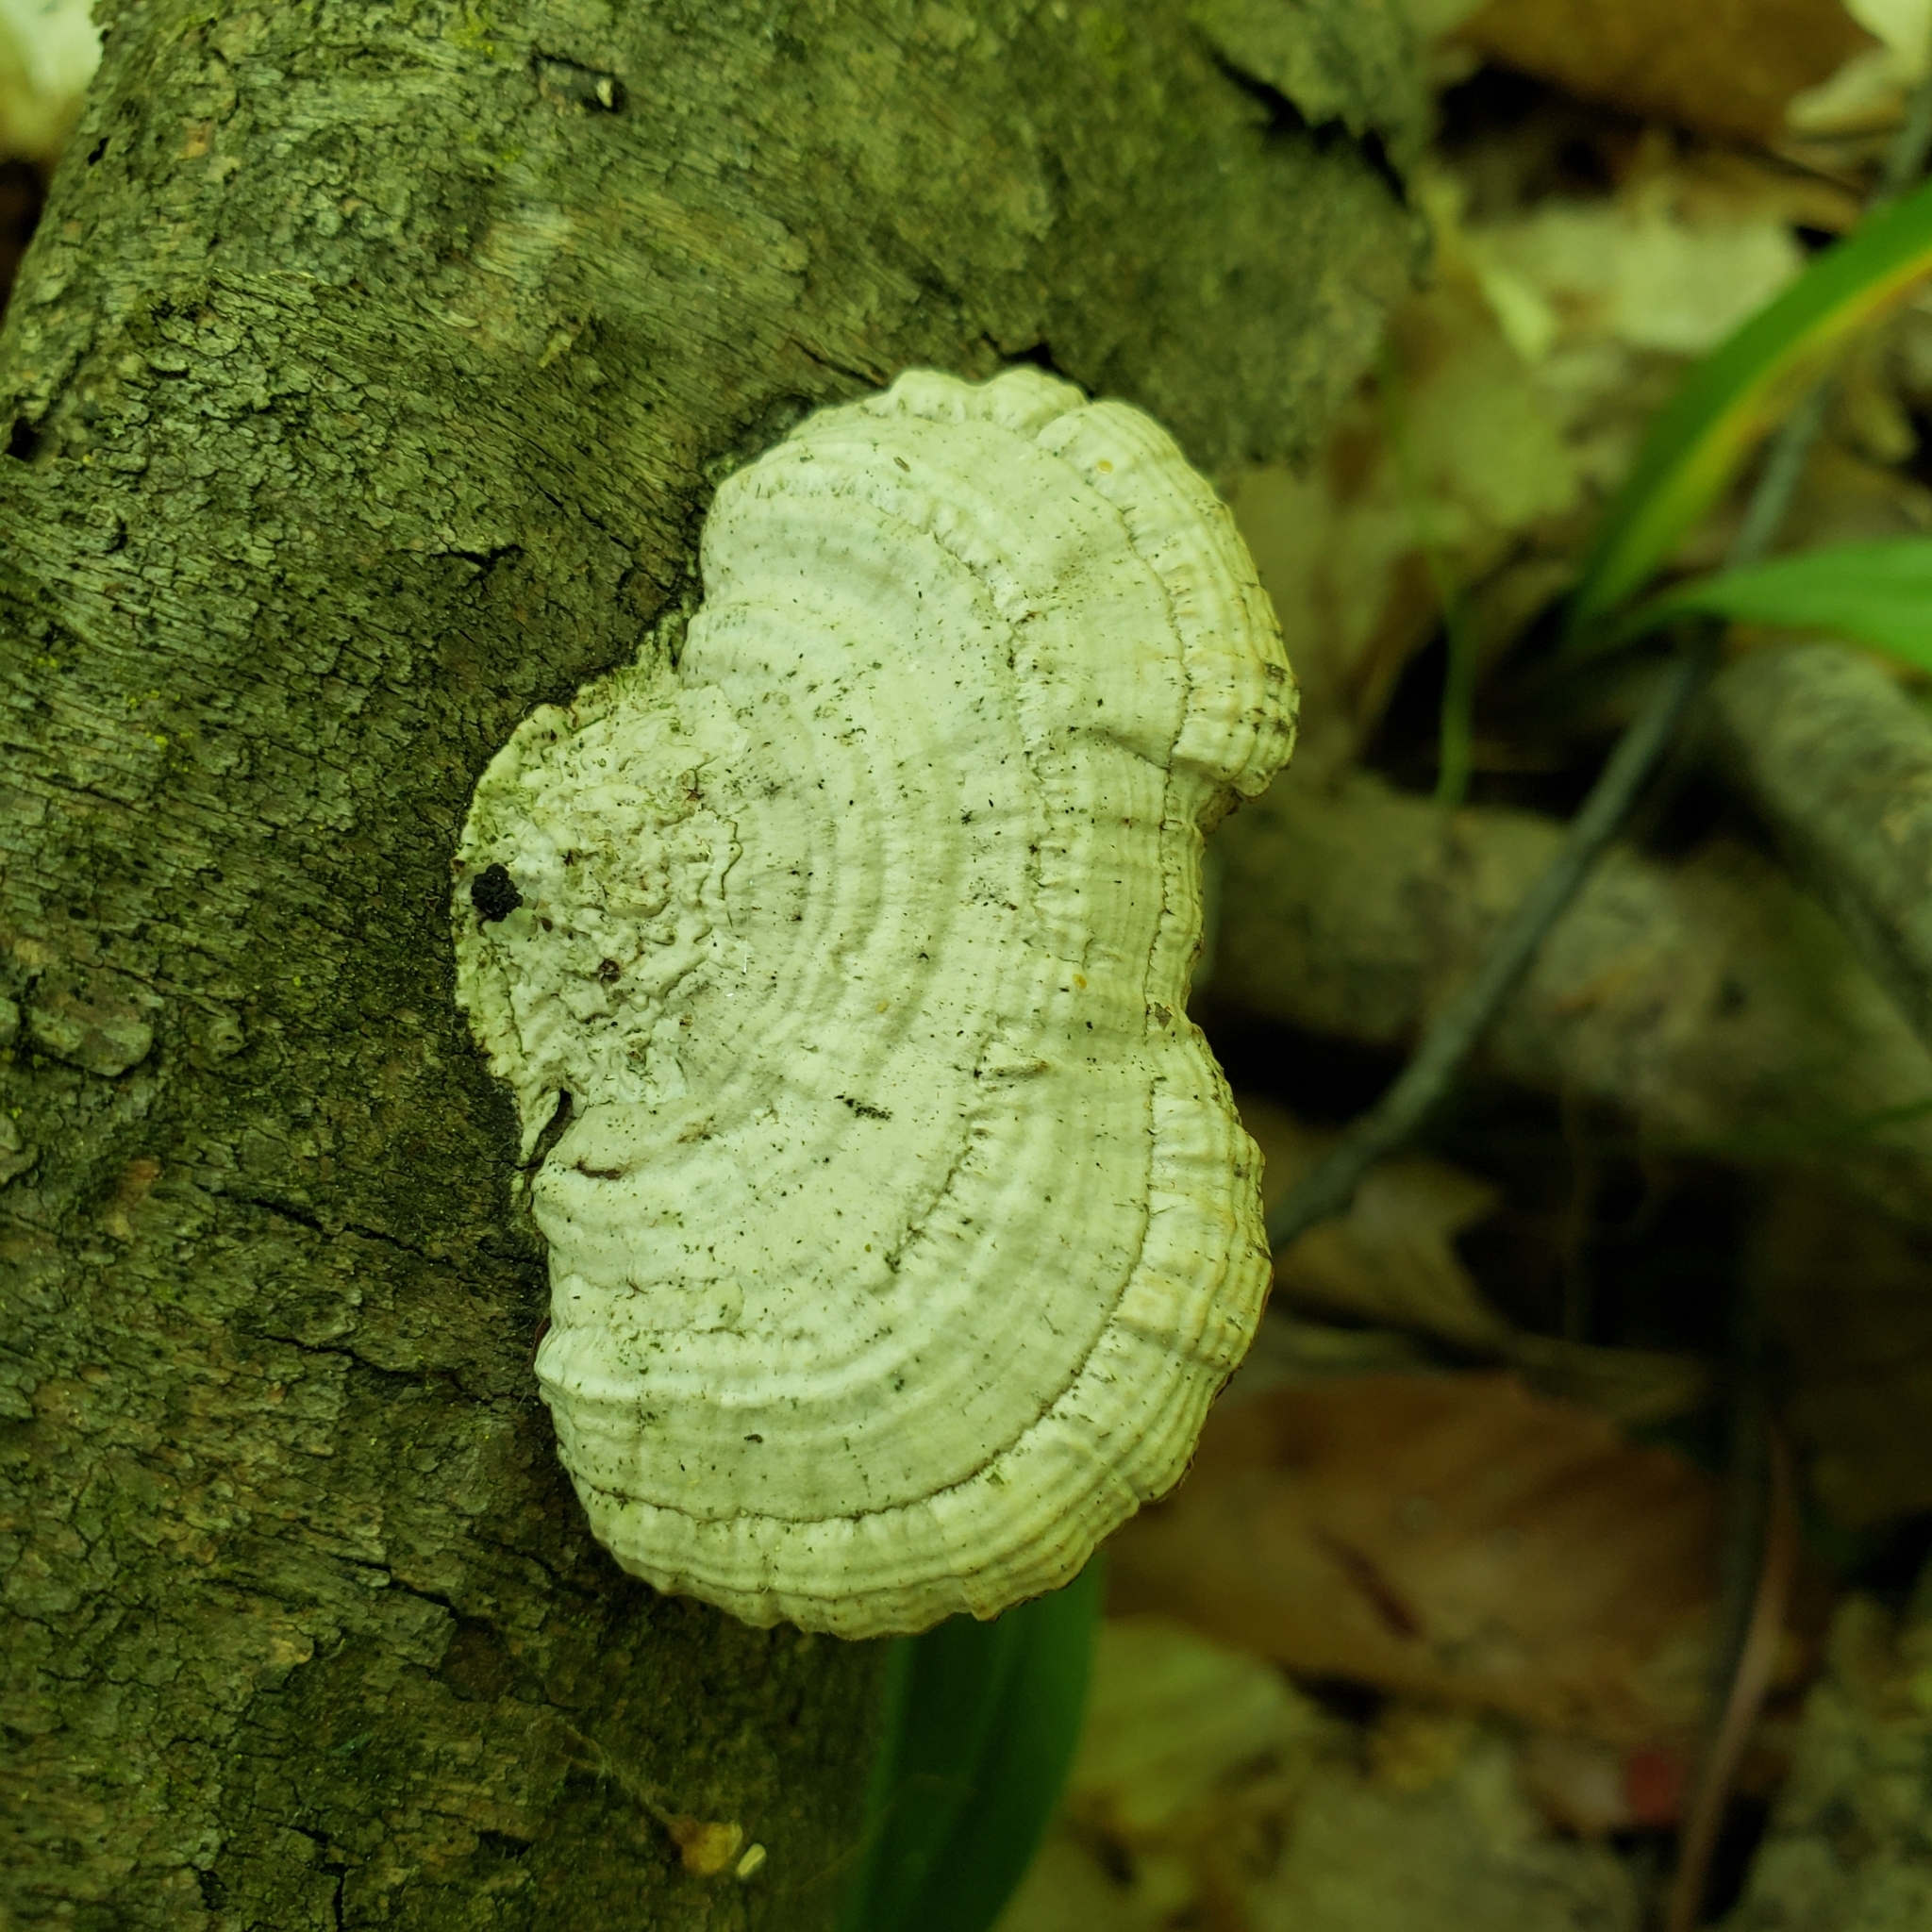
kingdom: Fungi
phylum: Basidiomycota
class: Agaricomycetes
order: Polyporales
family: Polyporaceae
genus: Daedaleopsis
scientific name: Daedaleopsis confragosa
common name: Blushing bracket
